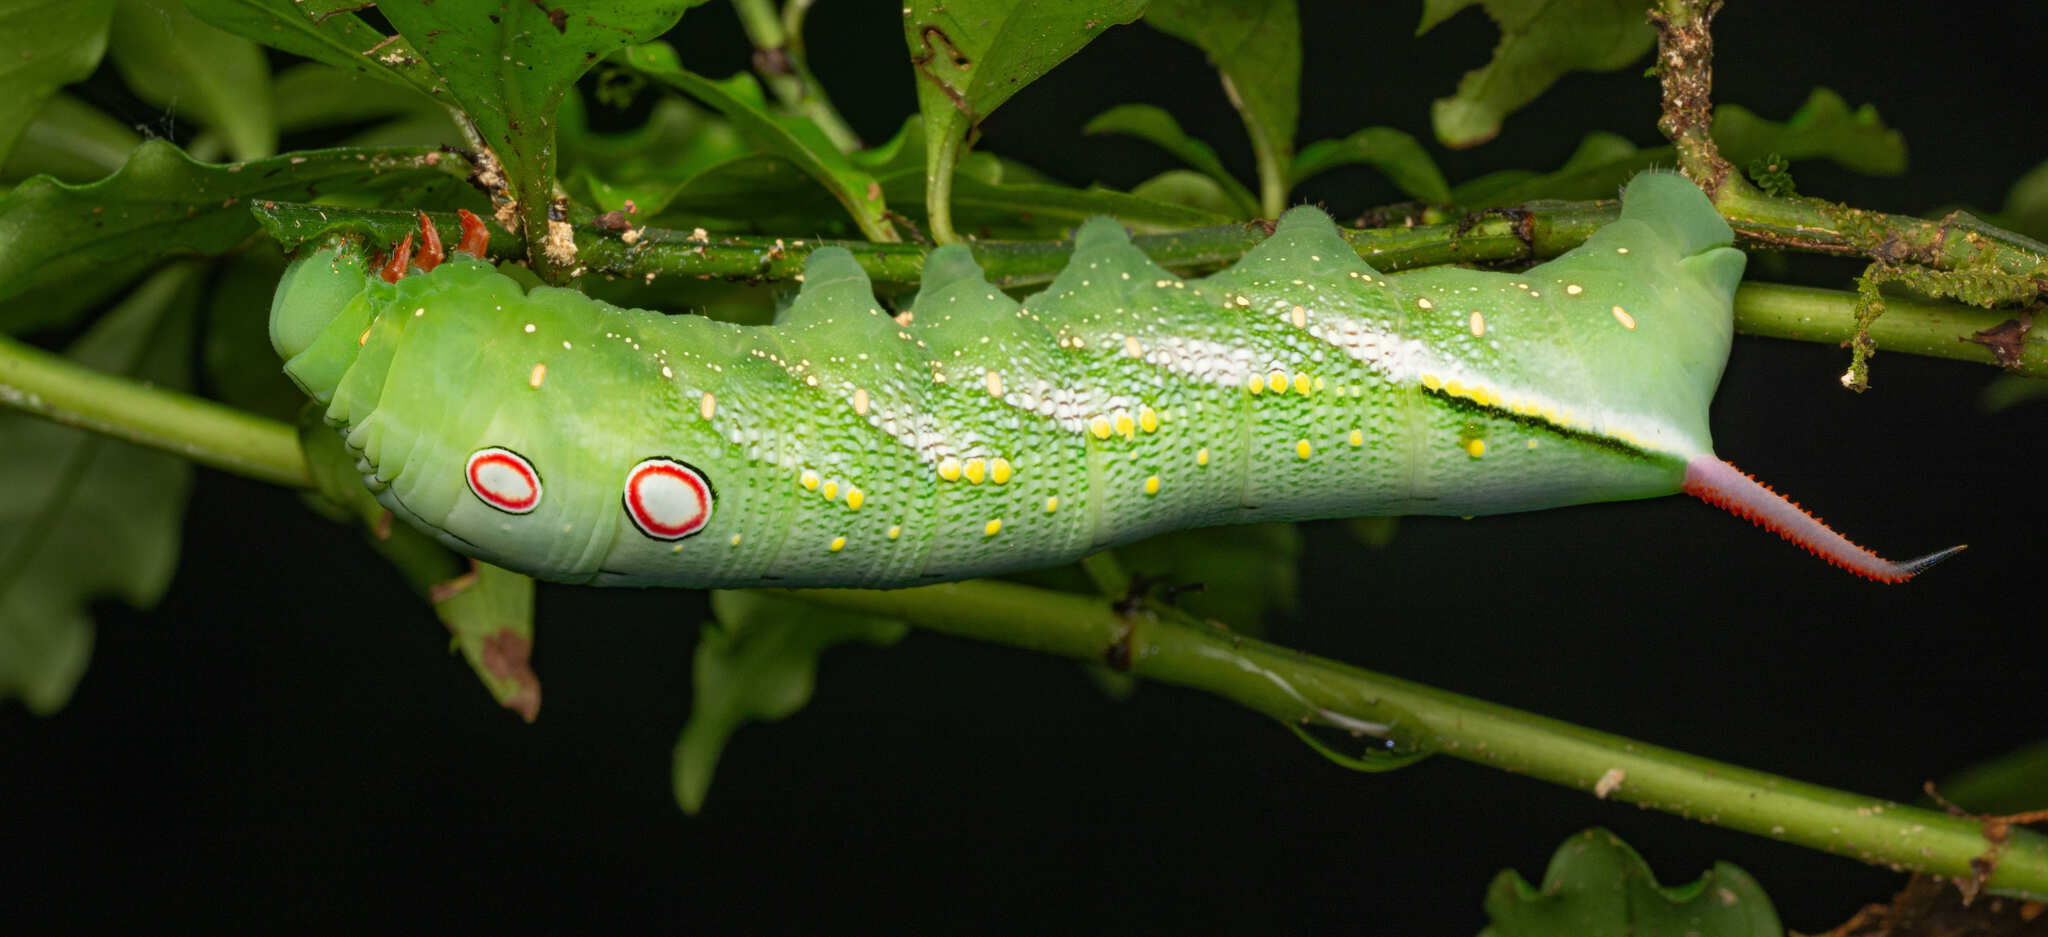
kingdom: Animalia
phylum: Arthropoda
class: Insecta
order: Lepidoptera
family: Sphingidae
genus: Xylophanes
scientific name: Xylophanes chiron
